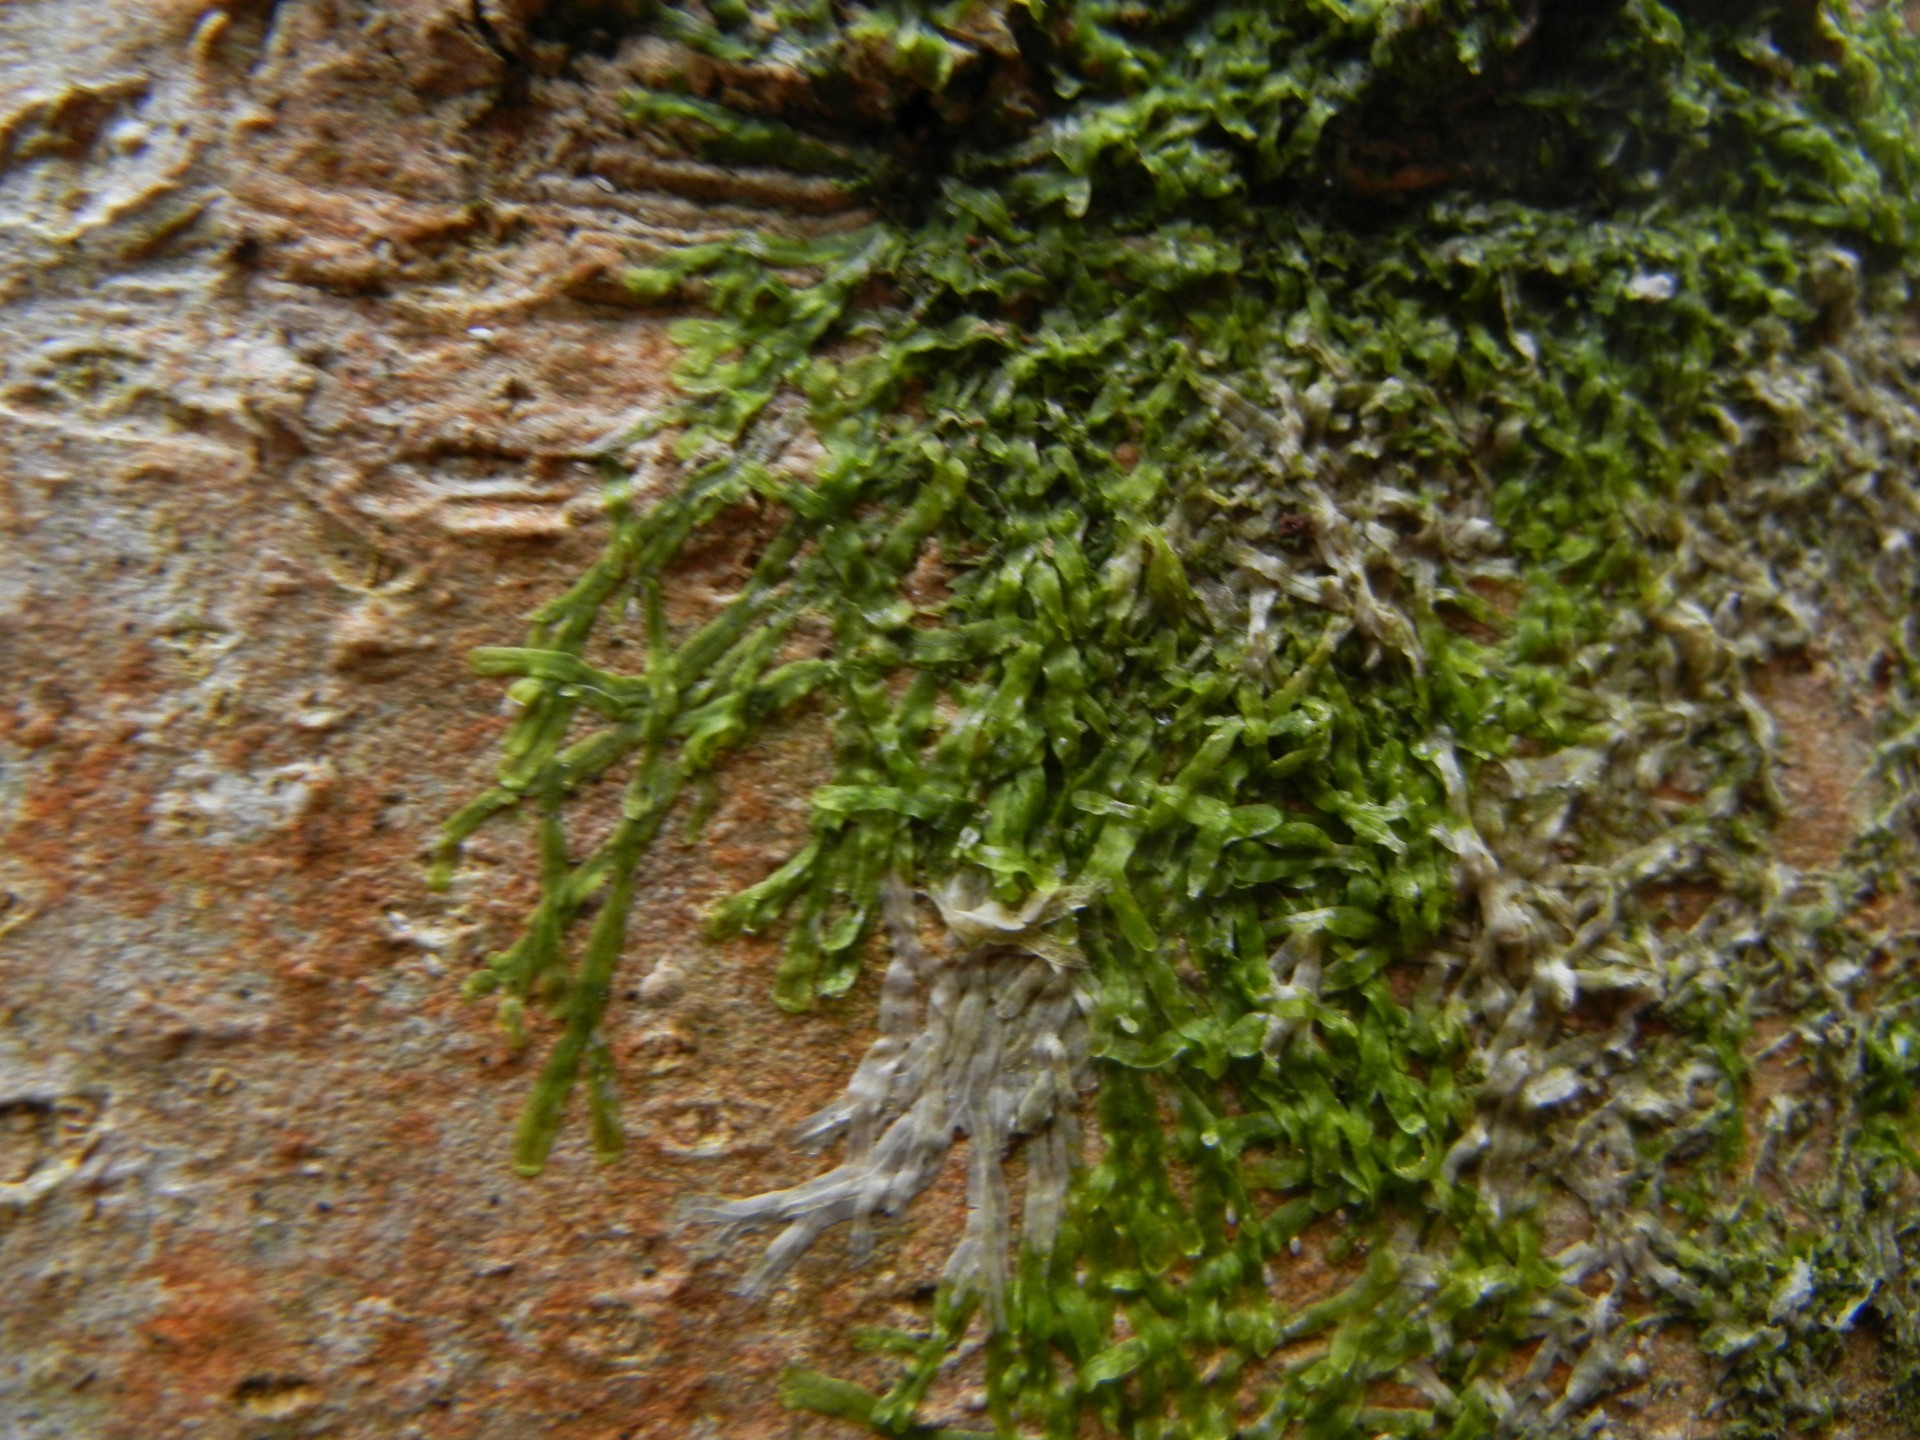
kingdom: Plantae
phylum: Marchantiophyta
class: Jungermanniopsida
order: Metzgeriales
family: Metzgeriaceae
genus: Metzgeria
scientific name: Metzgeria furcata
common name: Forked veilwort
